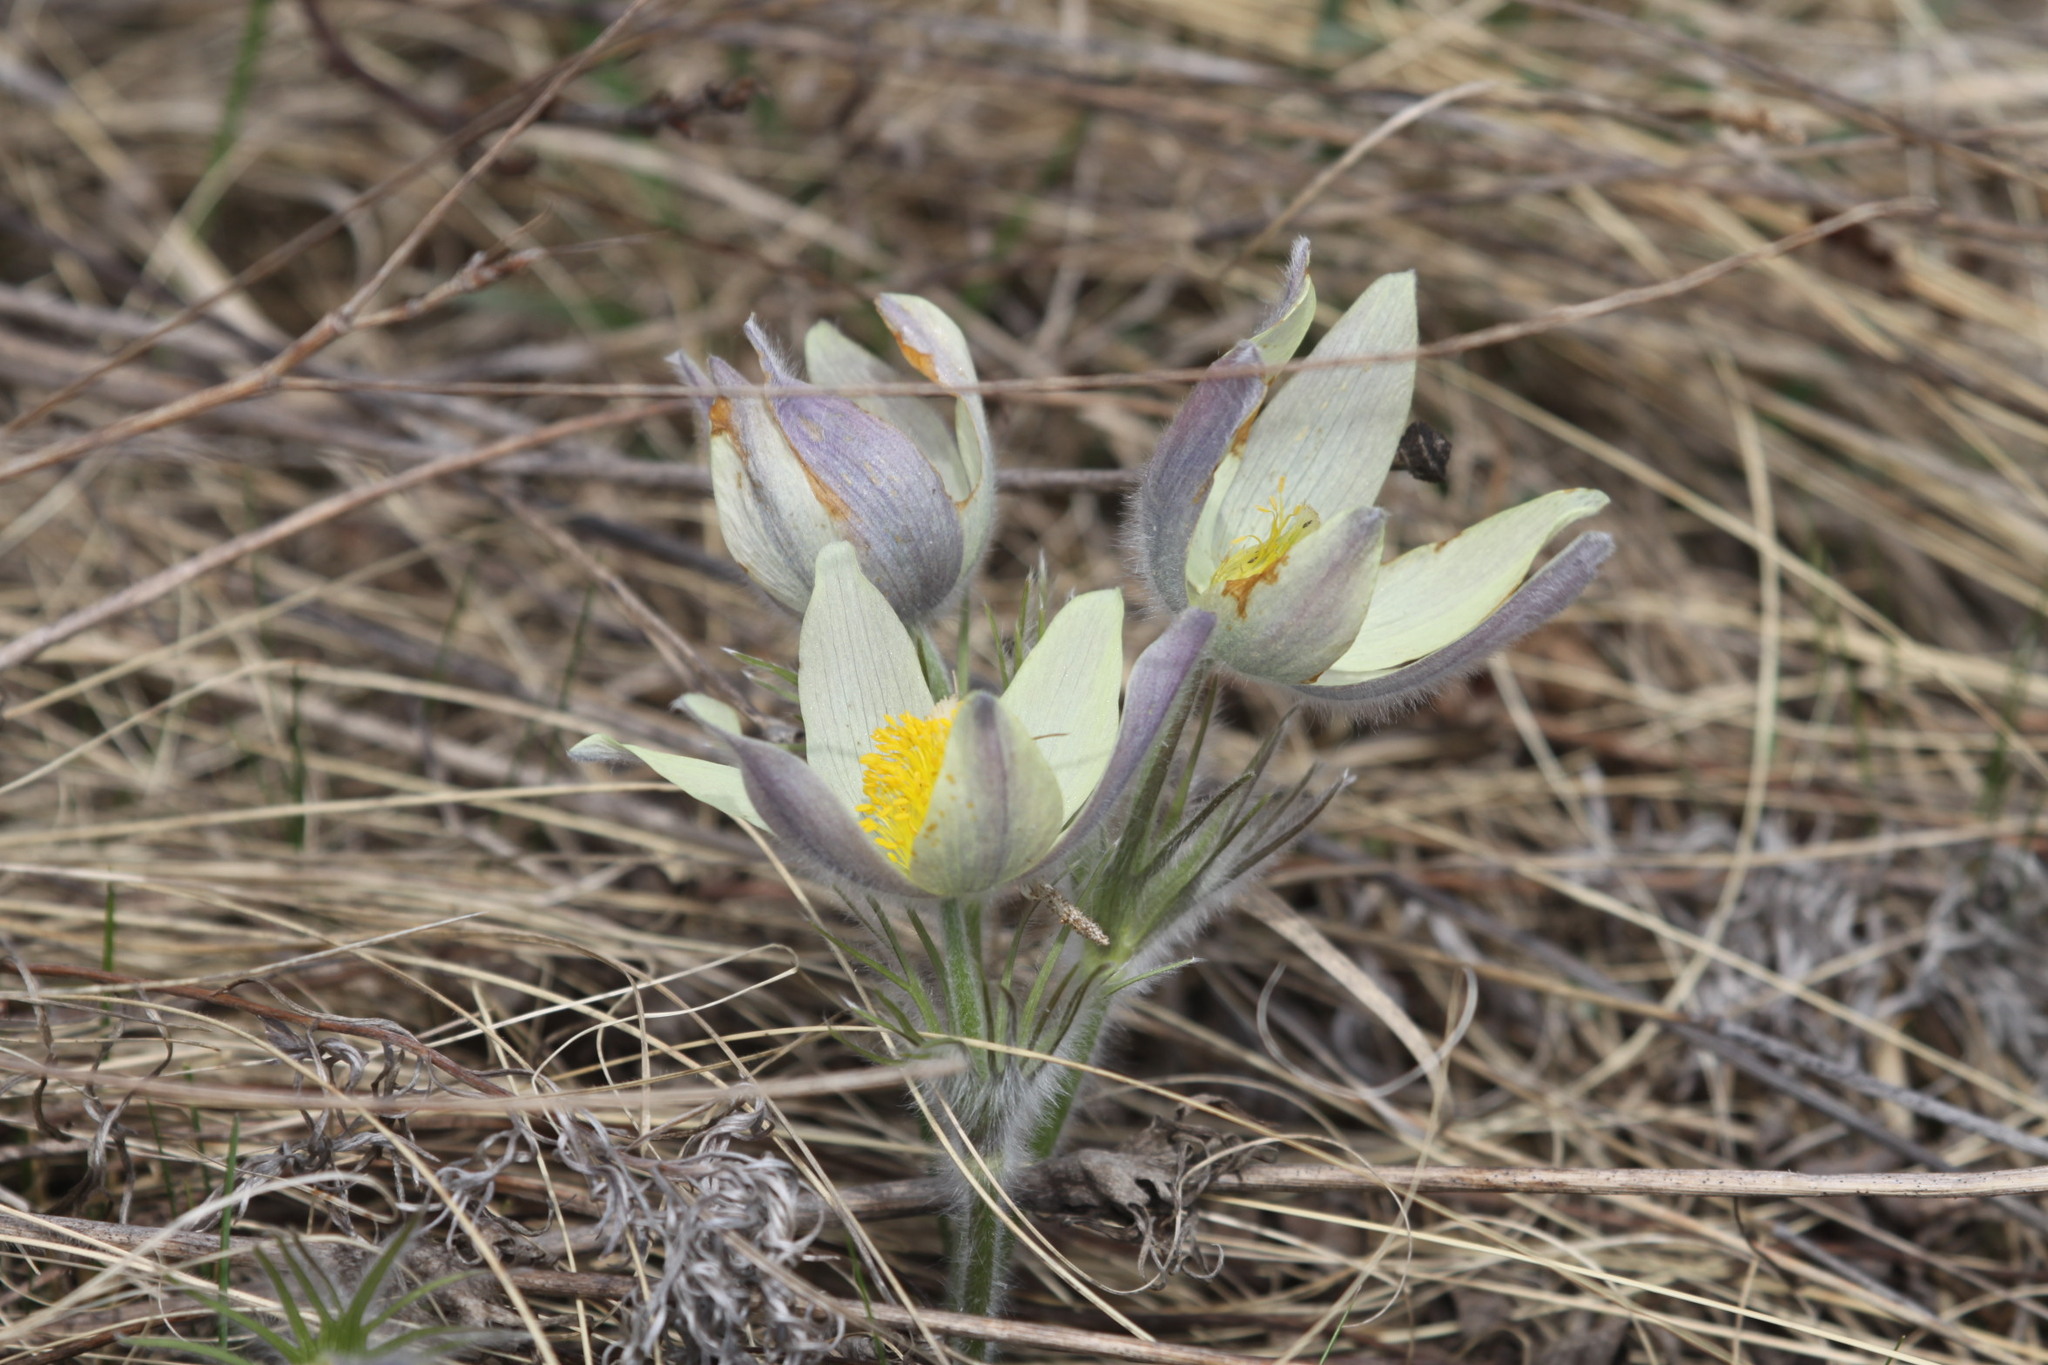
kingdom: Plantae
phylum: Tracheophyta
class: Magnoliopsida
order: Ranunculales
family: Ranunculaceae
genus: Pulsatilla
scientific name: Pulsatilla patens
